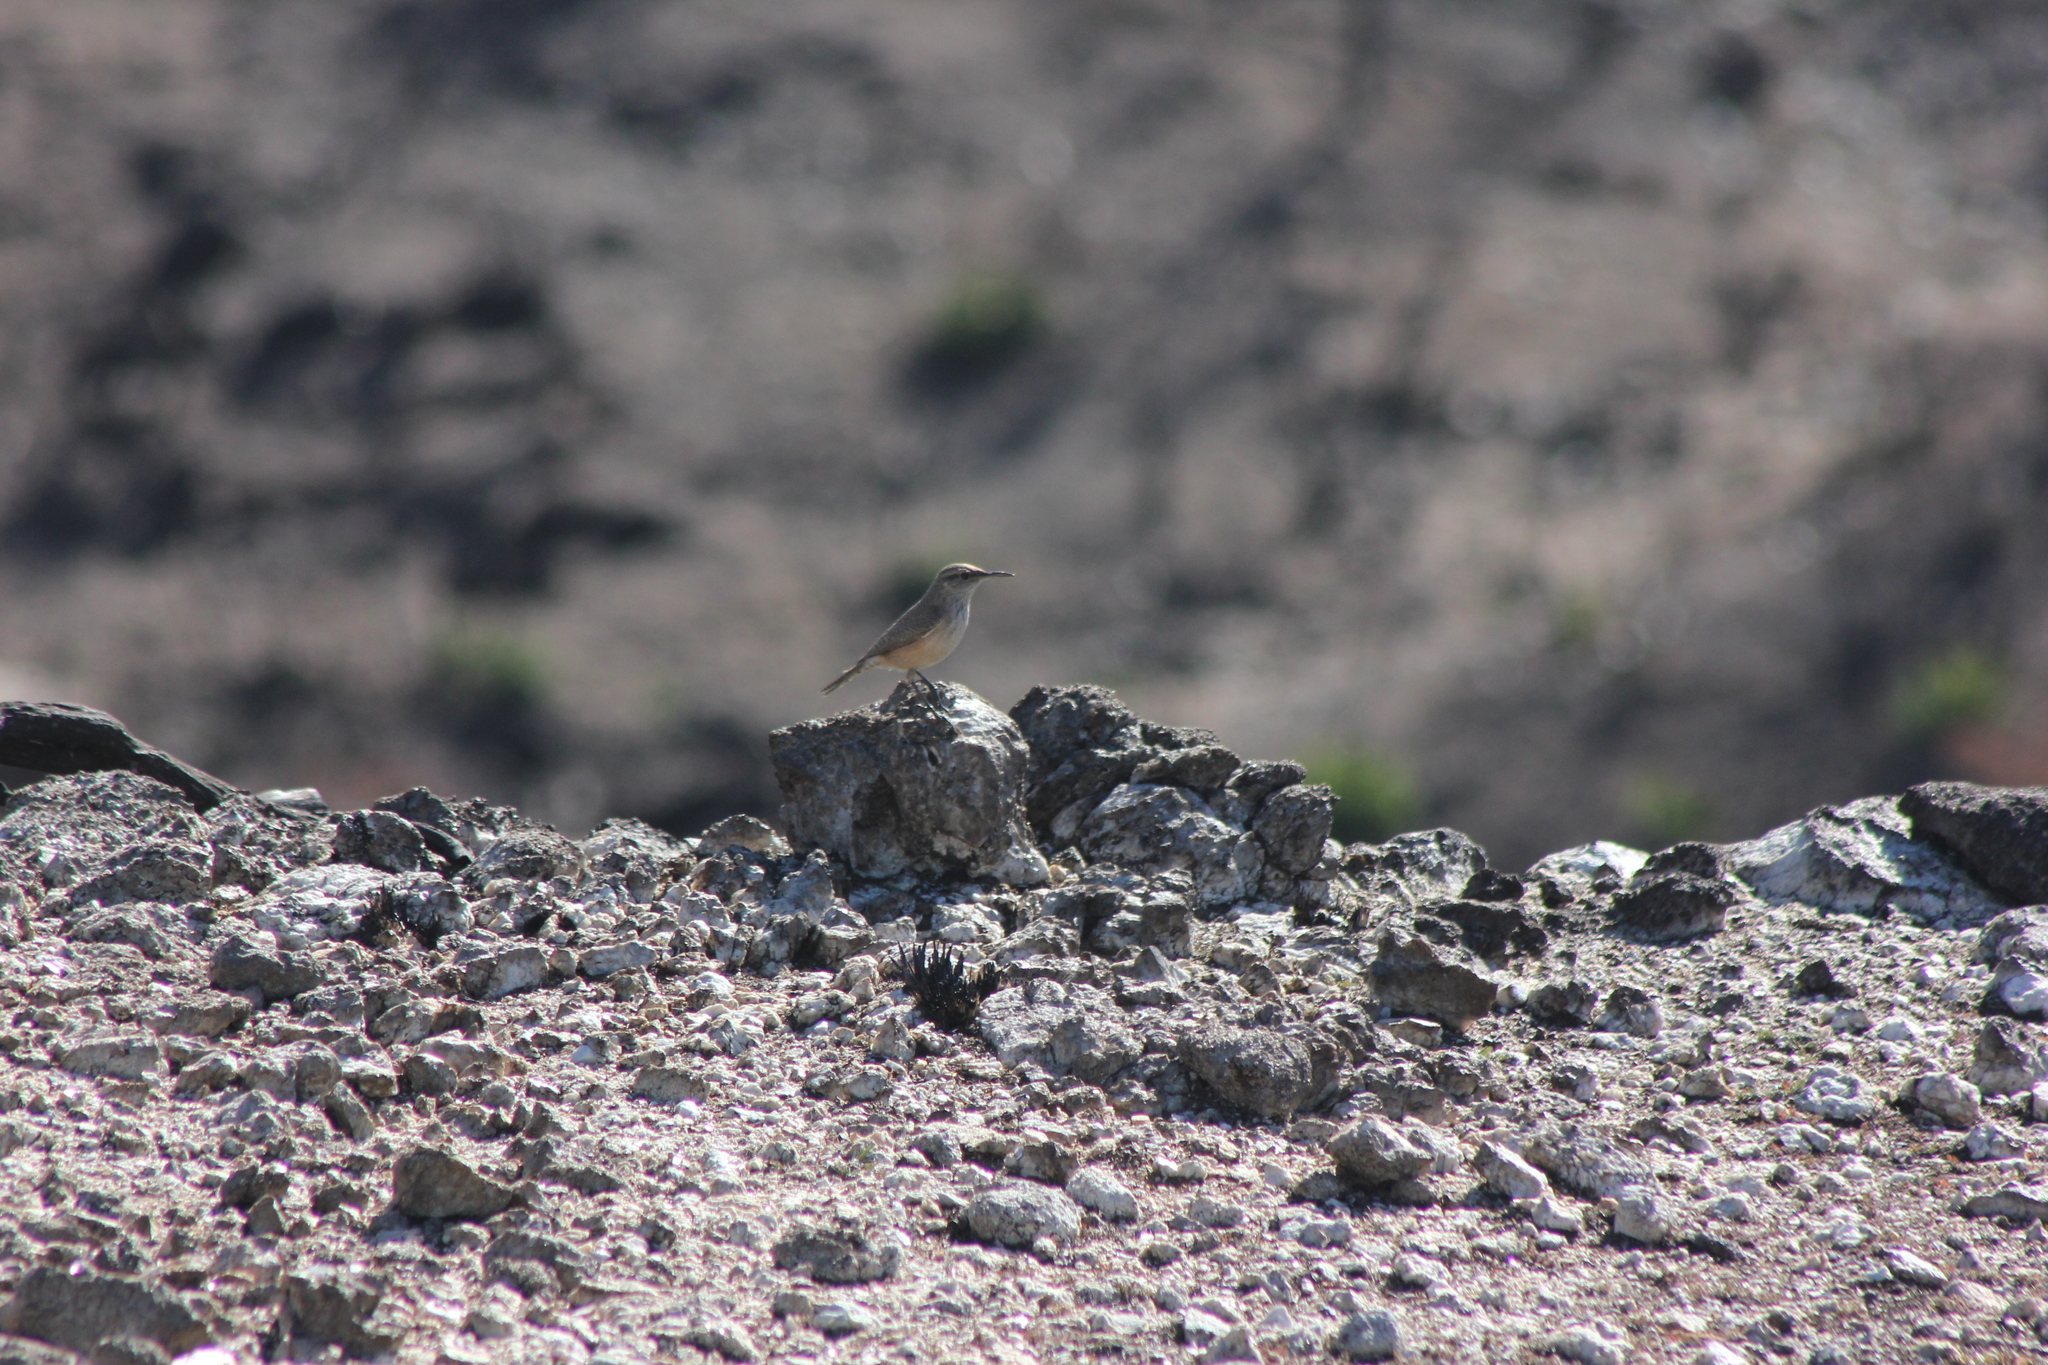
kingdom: Animalia
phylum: Chordata
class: Aves
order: Passeriformes
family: Troglodytidae
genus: Salpinctes
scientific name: Salpinctes obsoletus
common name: Rock wren
